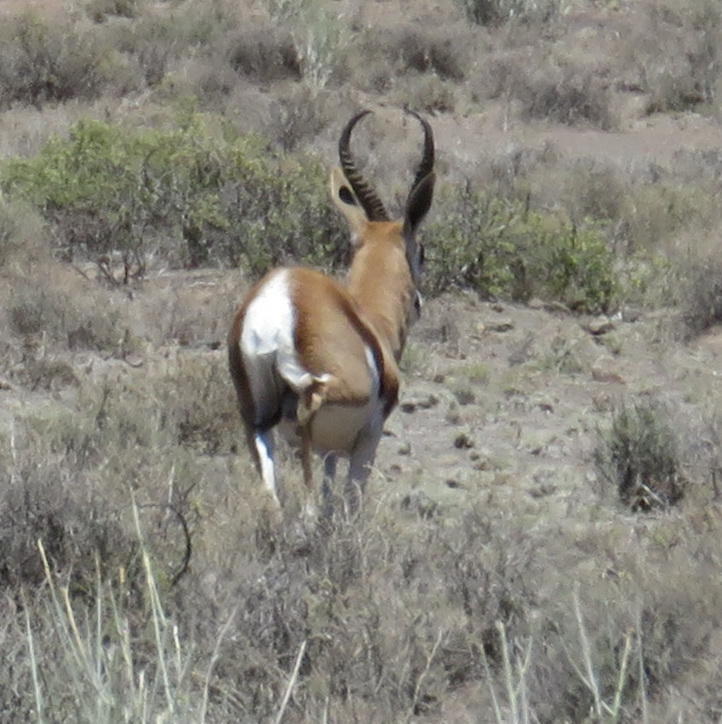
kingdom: Animalia
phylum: Chordata
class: Mammalia
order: Artiodactyla
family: Bovidae
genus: Antidorcas
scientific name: Antidorcas marsupialis
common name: Springbok
